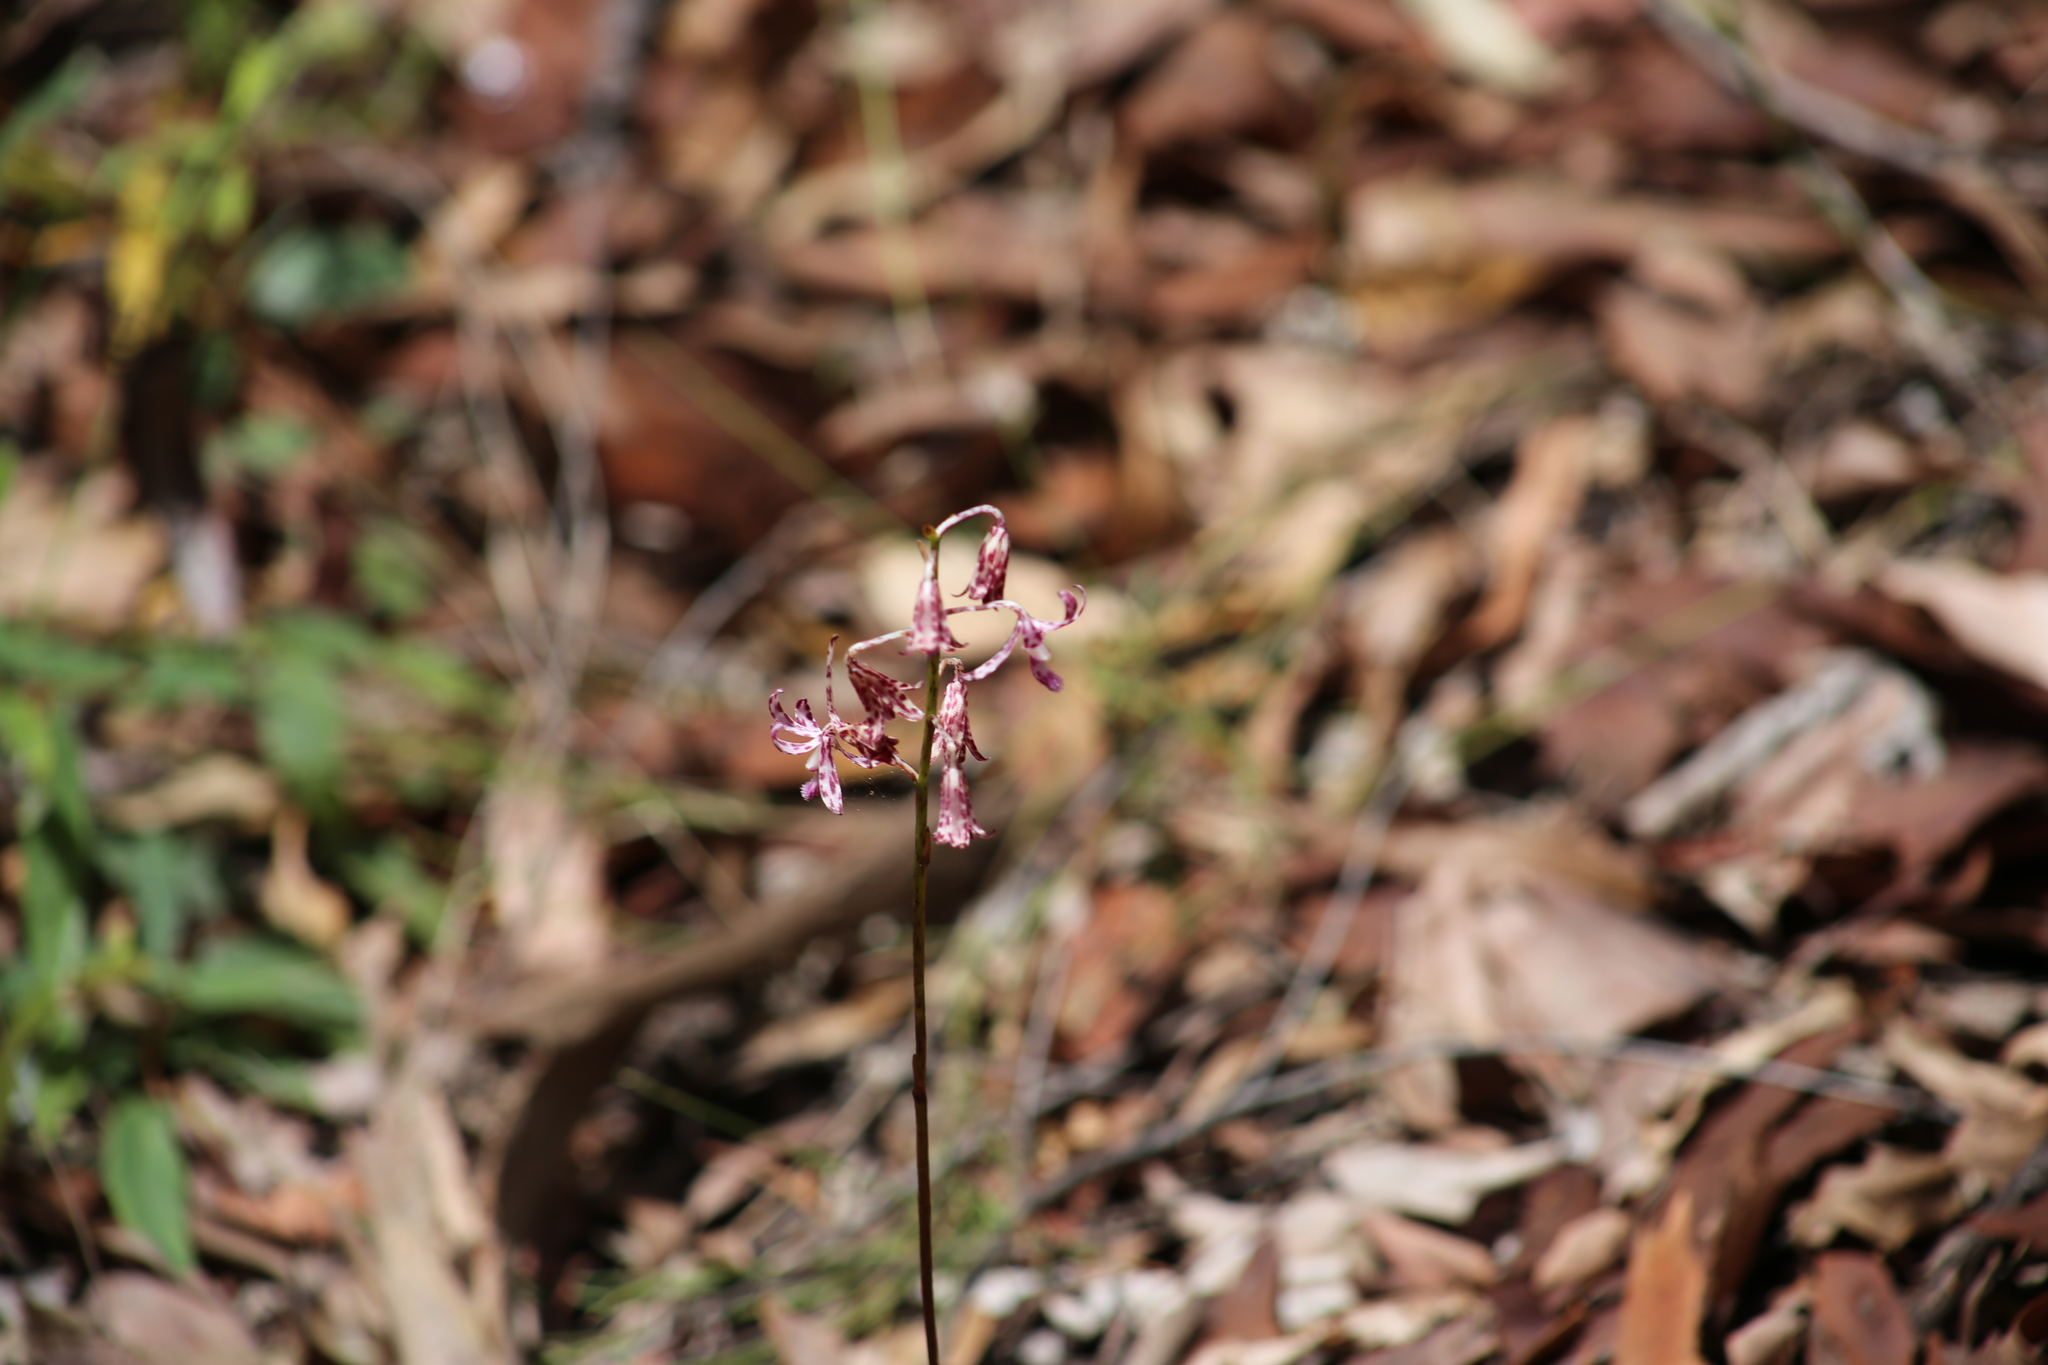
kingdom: Plantae
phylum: Tracheophyta
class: Liliopsida
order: Asparagales
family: Orchidaceae
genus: Dipodium
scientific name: Dipodium variegatum
